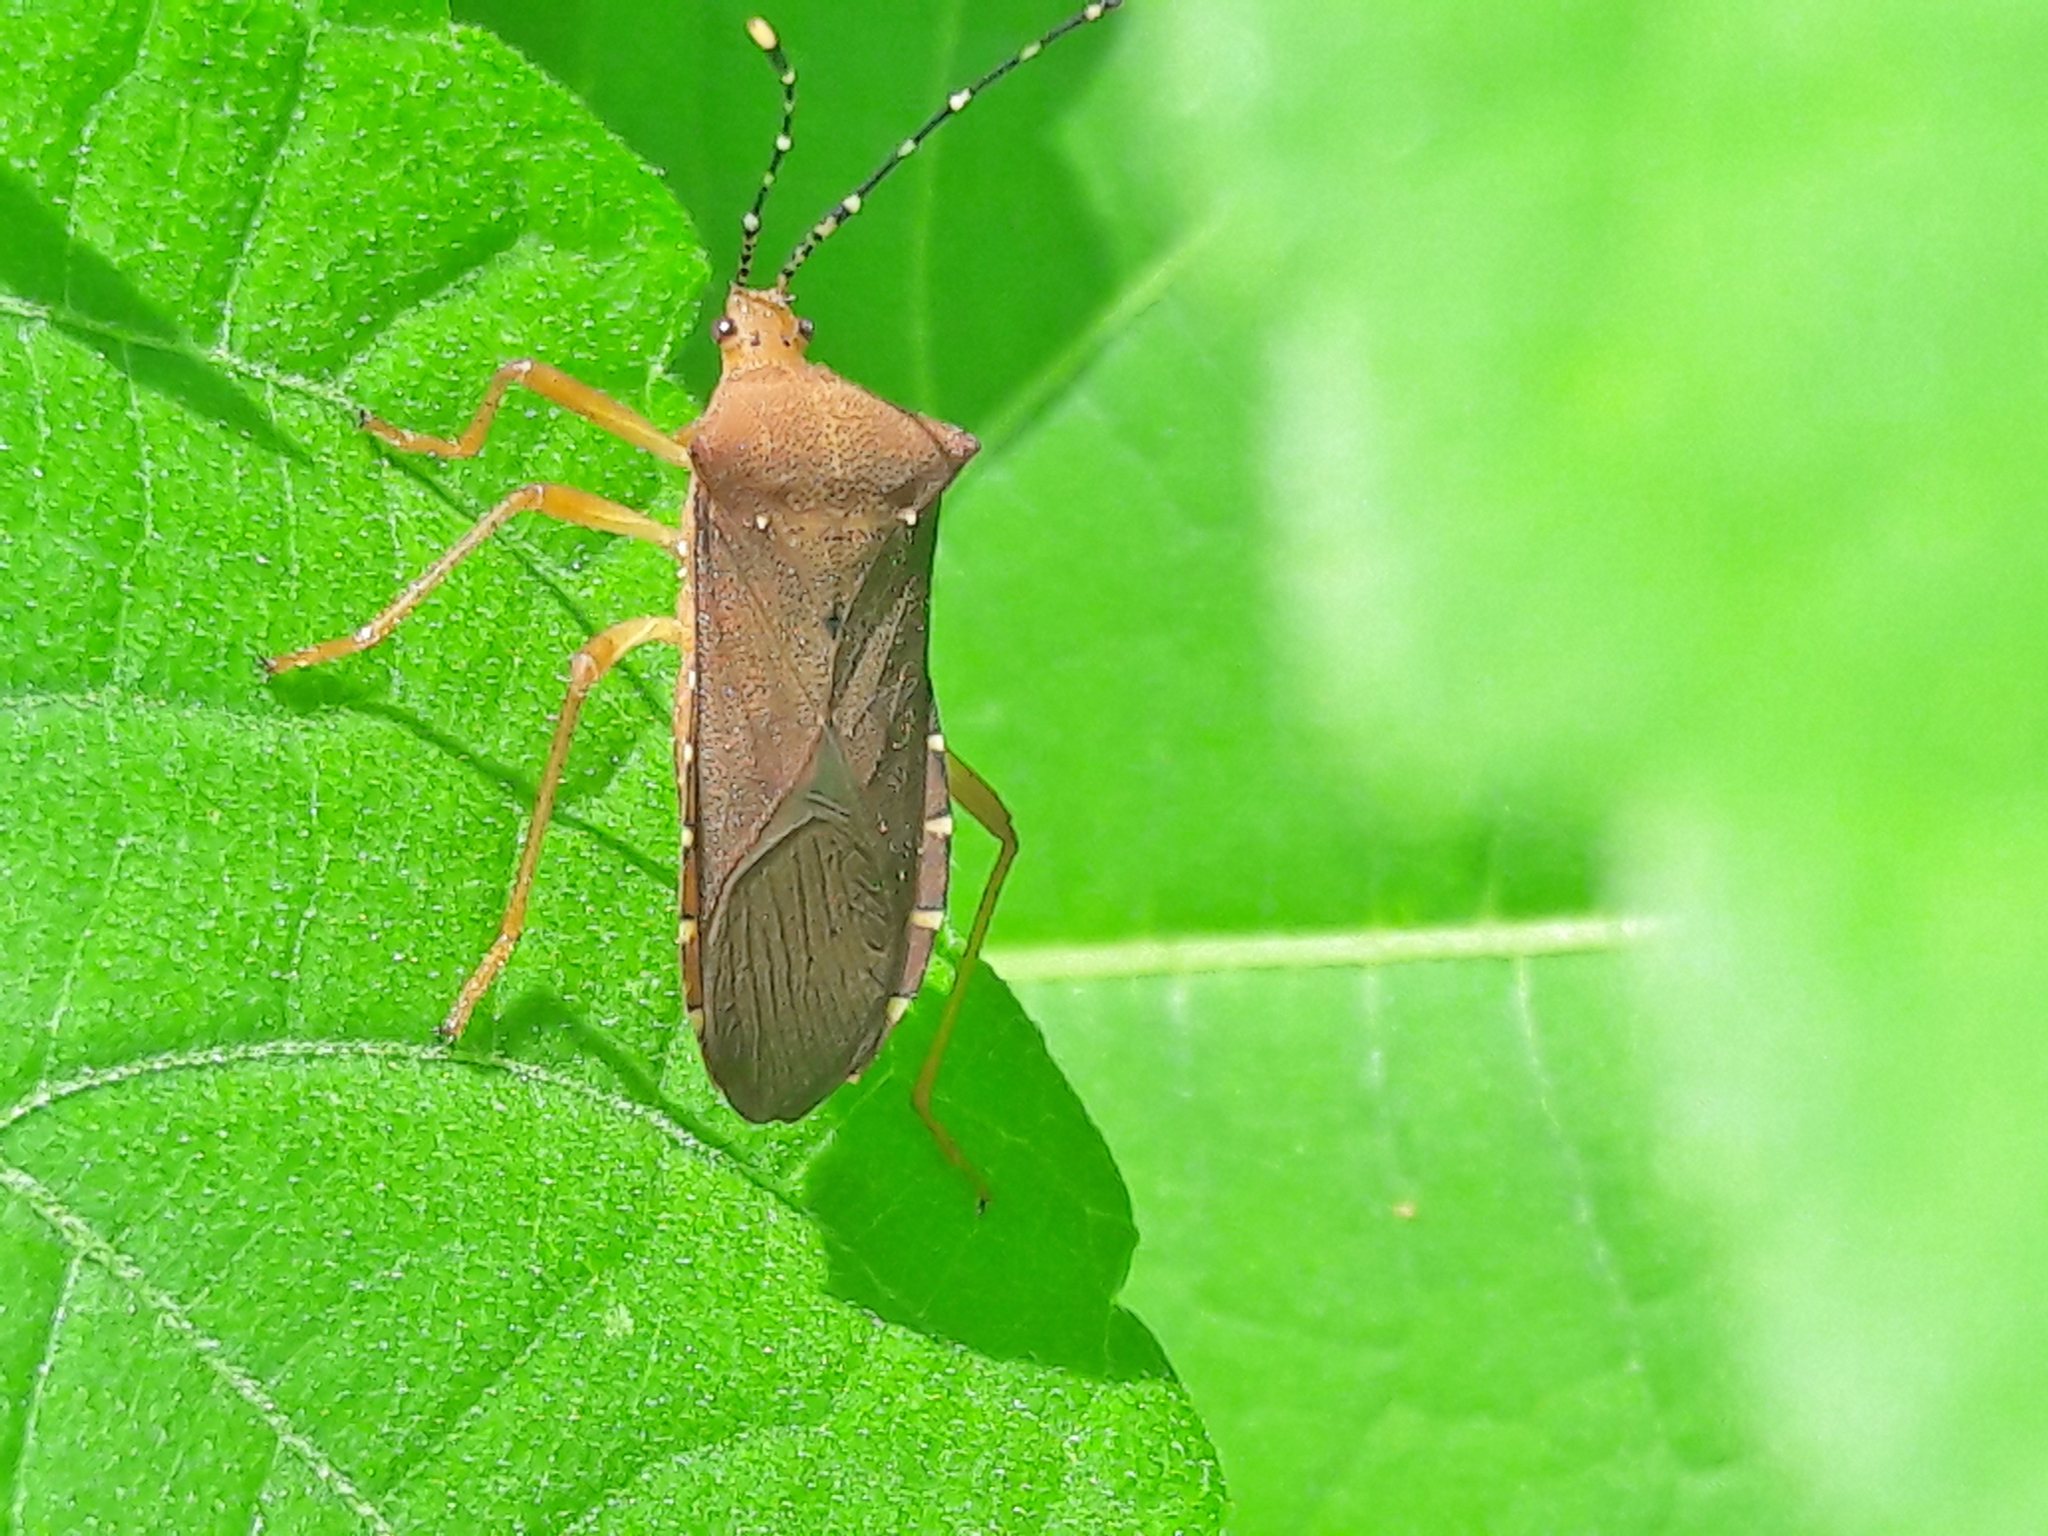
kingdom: Animalia
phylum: Arthropoda
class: Insecta
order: Hemiptera
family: Coreidae
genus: Anasa
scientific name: Anasa bellator
